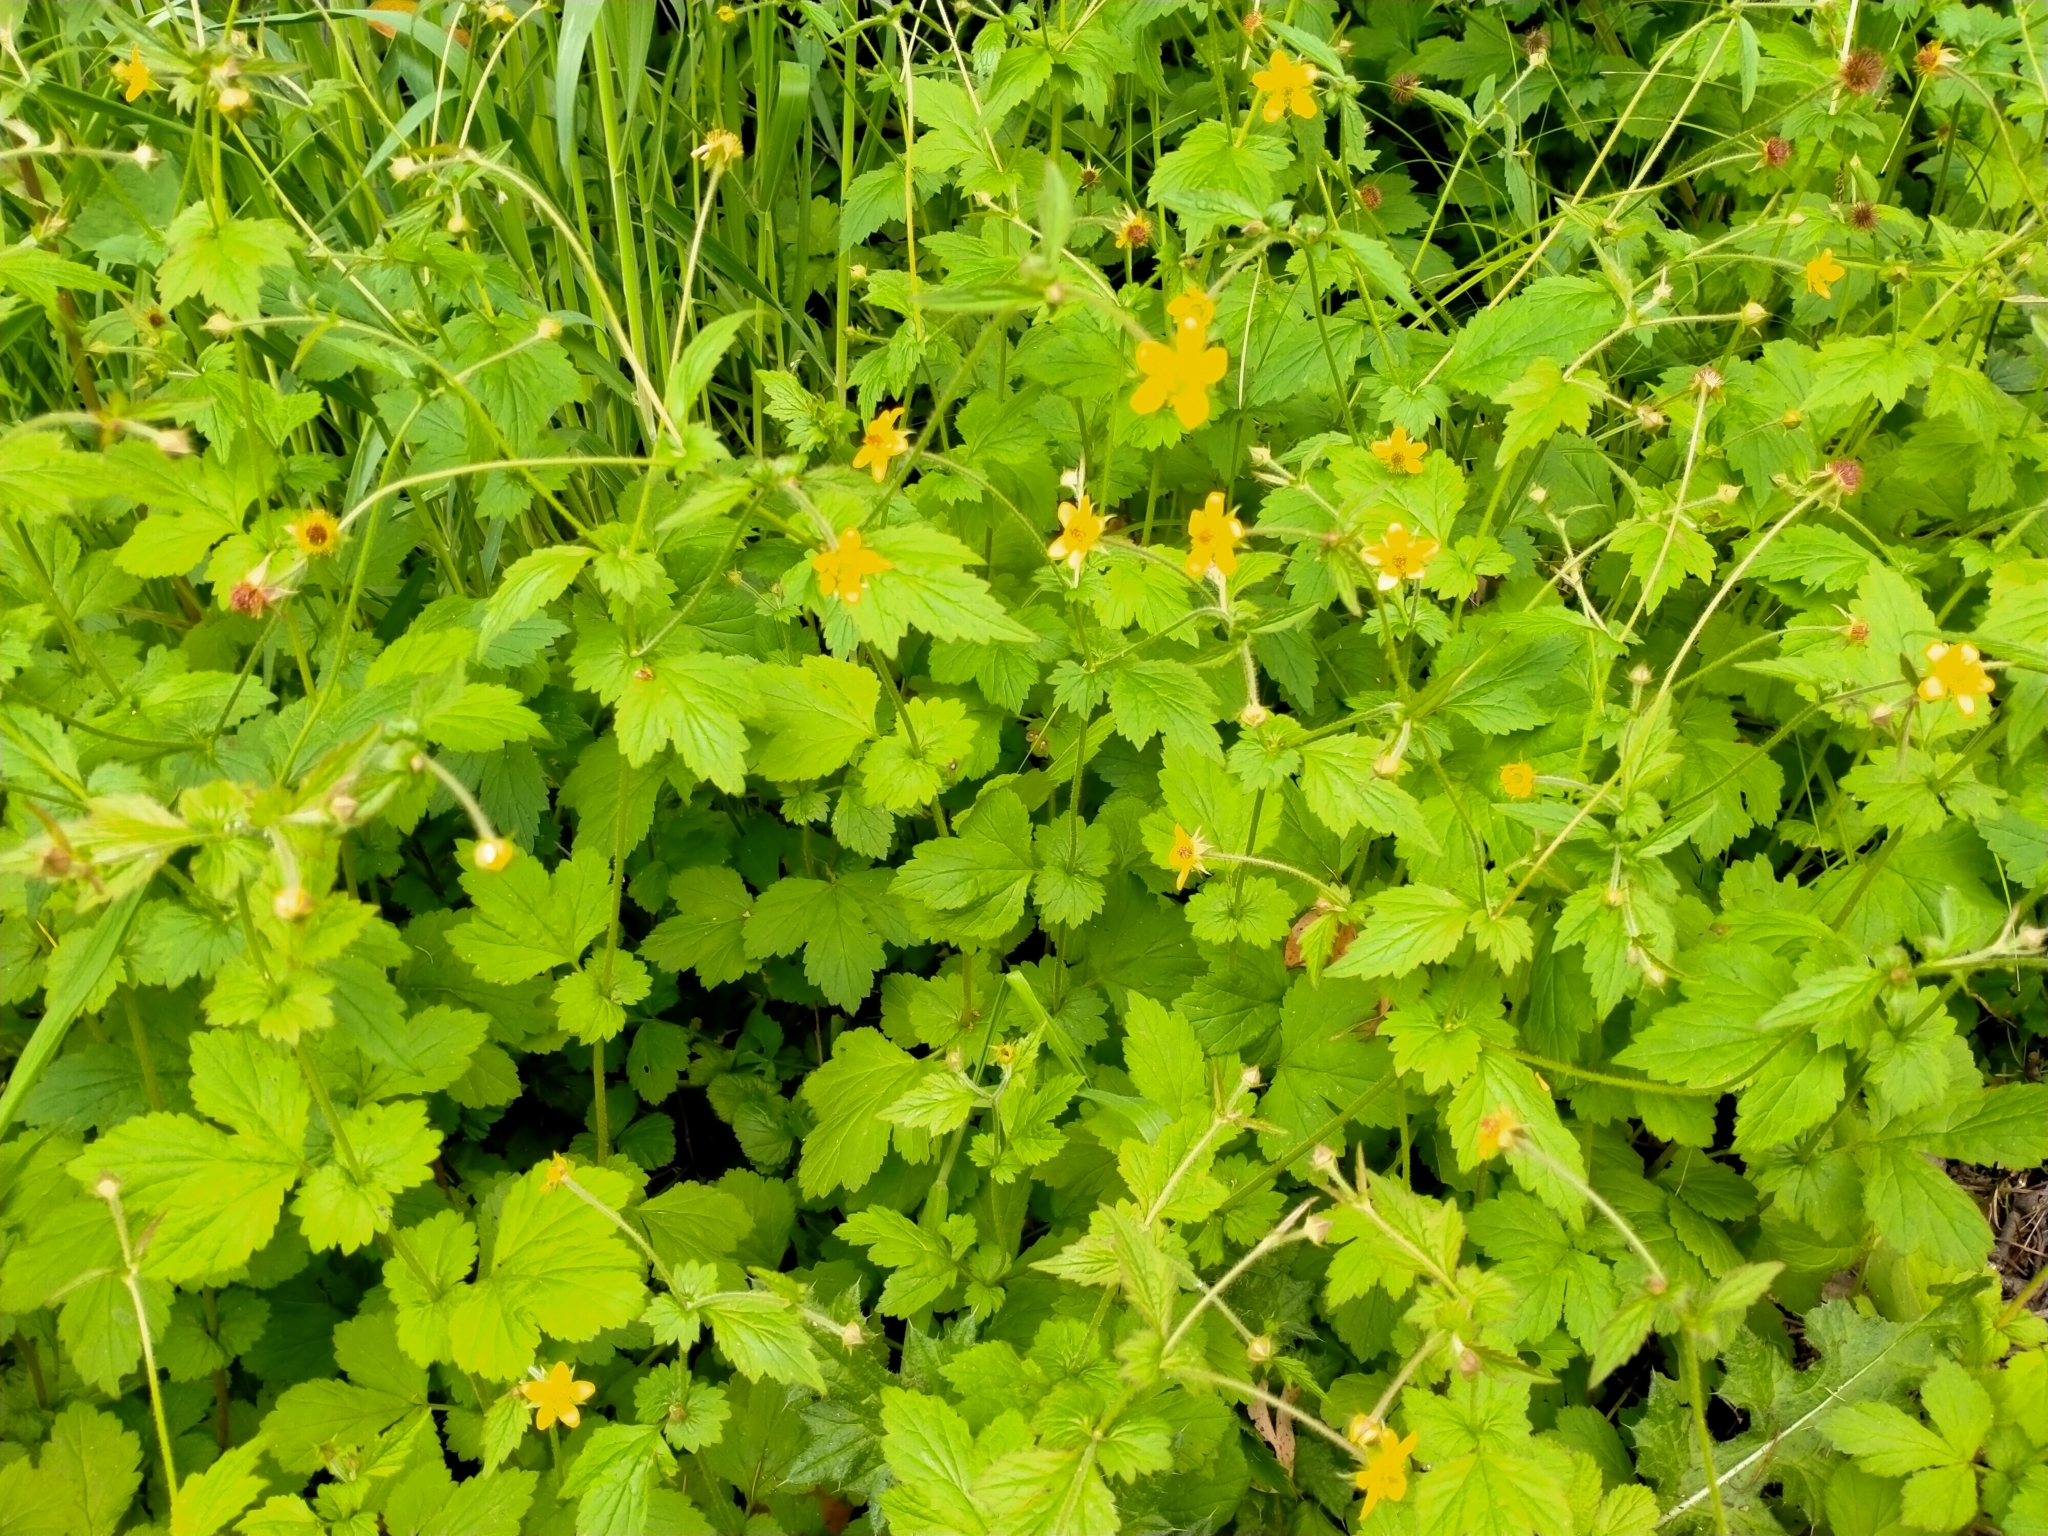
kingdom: Plantae
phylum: Tracheophyta
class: Magnoliopsida
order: Rosales
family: Rosaceae
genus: Geum
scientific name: Geum urbanum
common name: Wood avens
